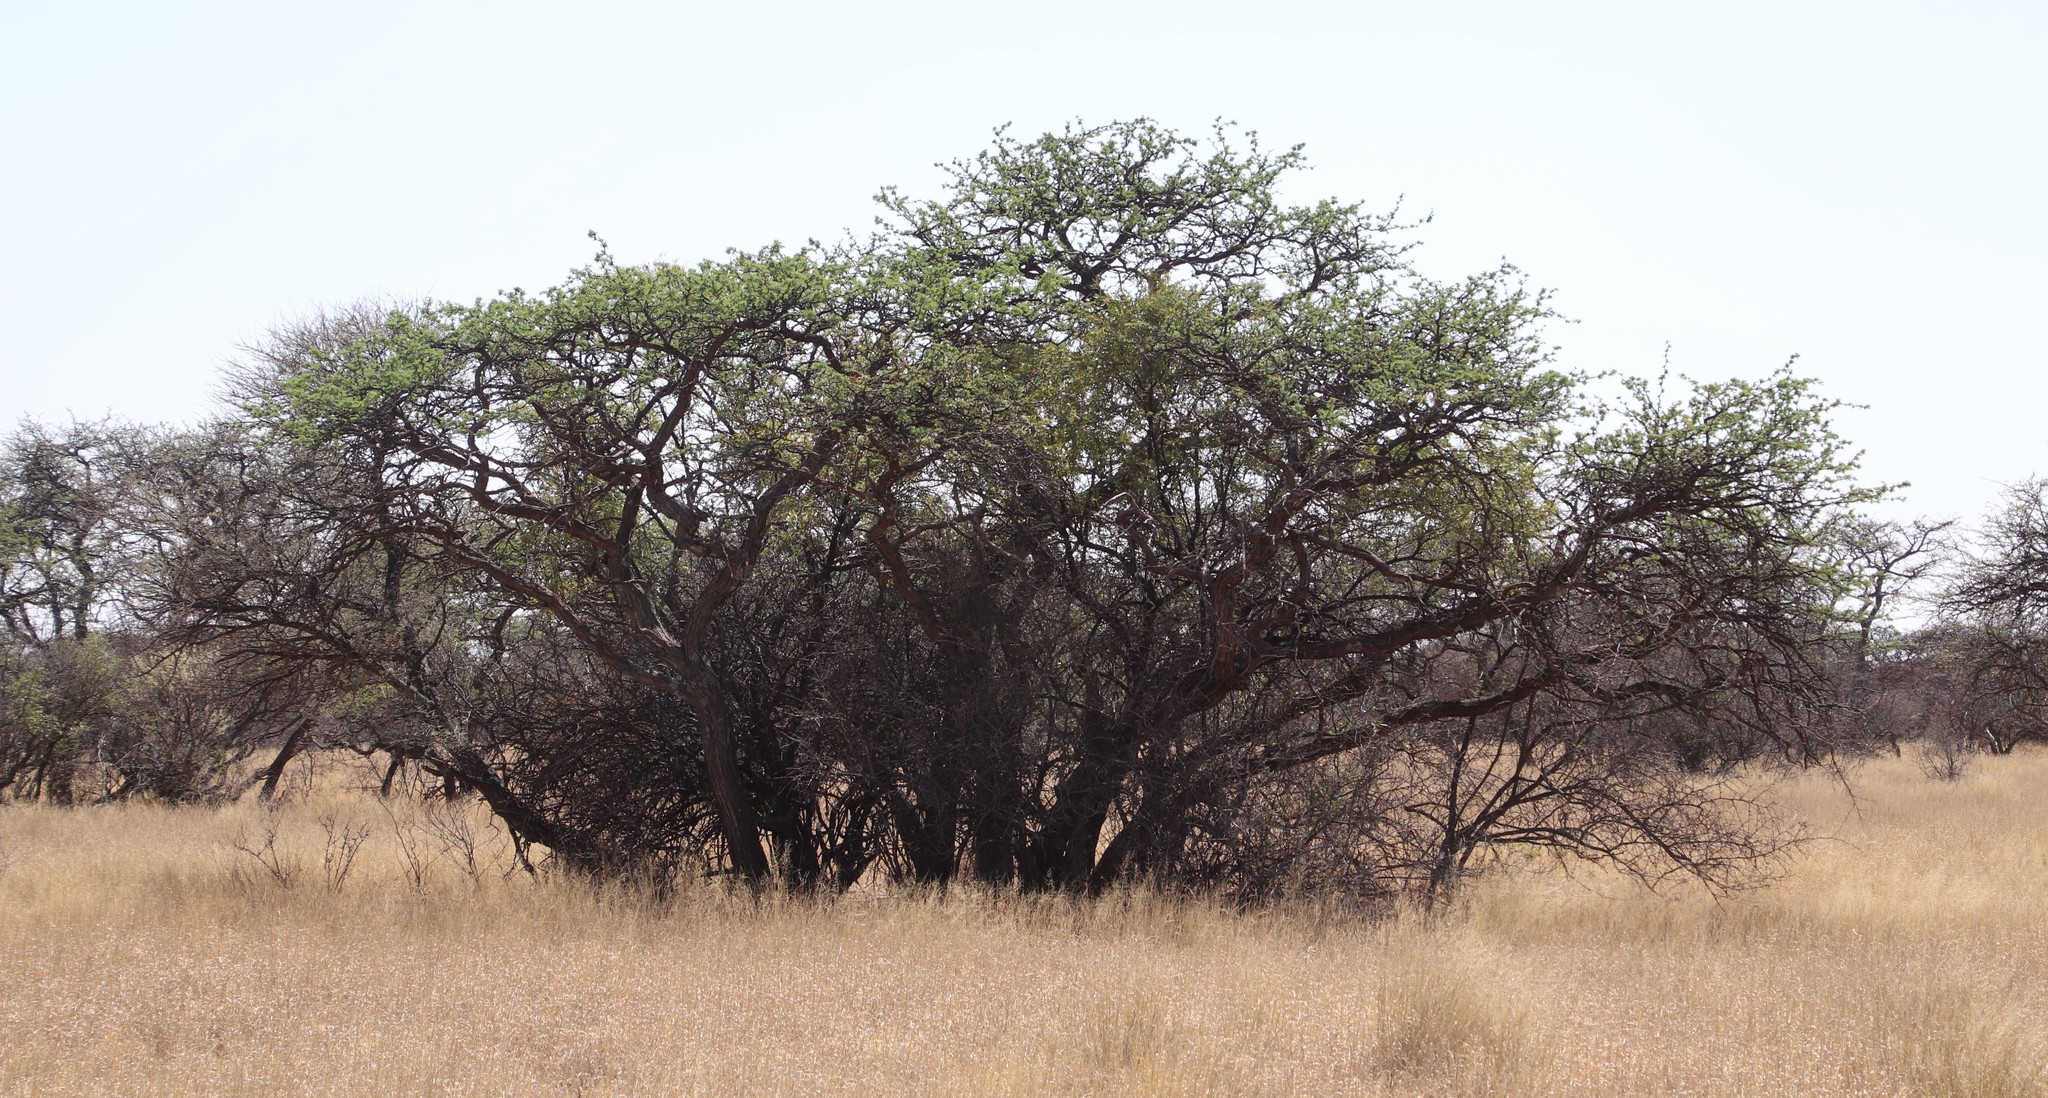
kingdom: Plantae
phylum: Tracheophyta
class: Magnoliopsida
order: Fabales
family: Fabaceae
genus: Vachellia
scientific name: Vachellia erioloba
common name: Camel thorn
